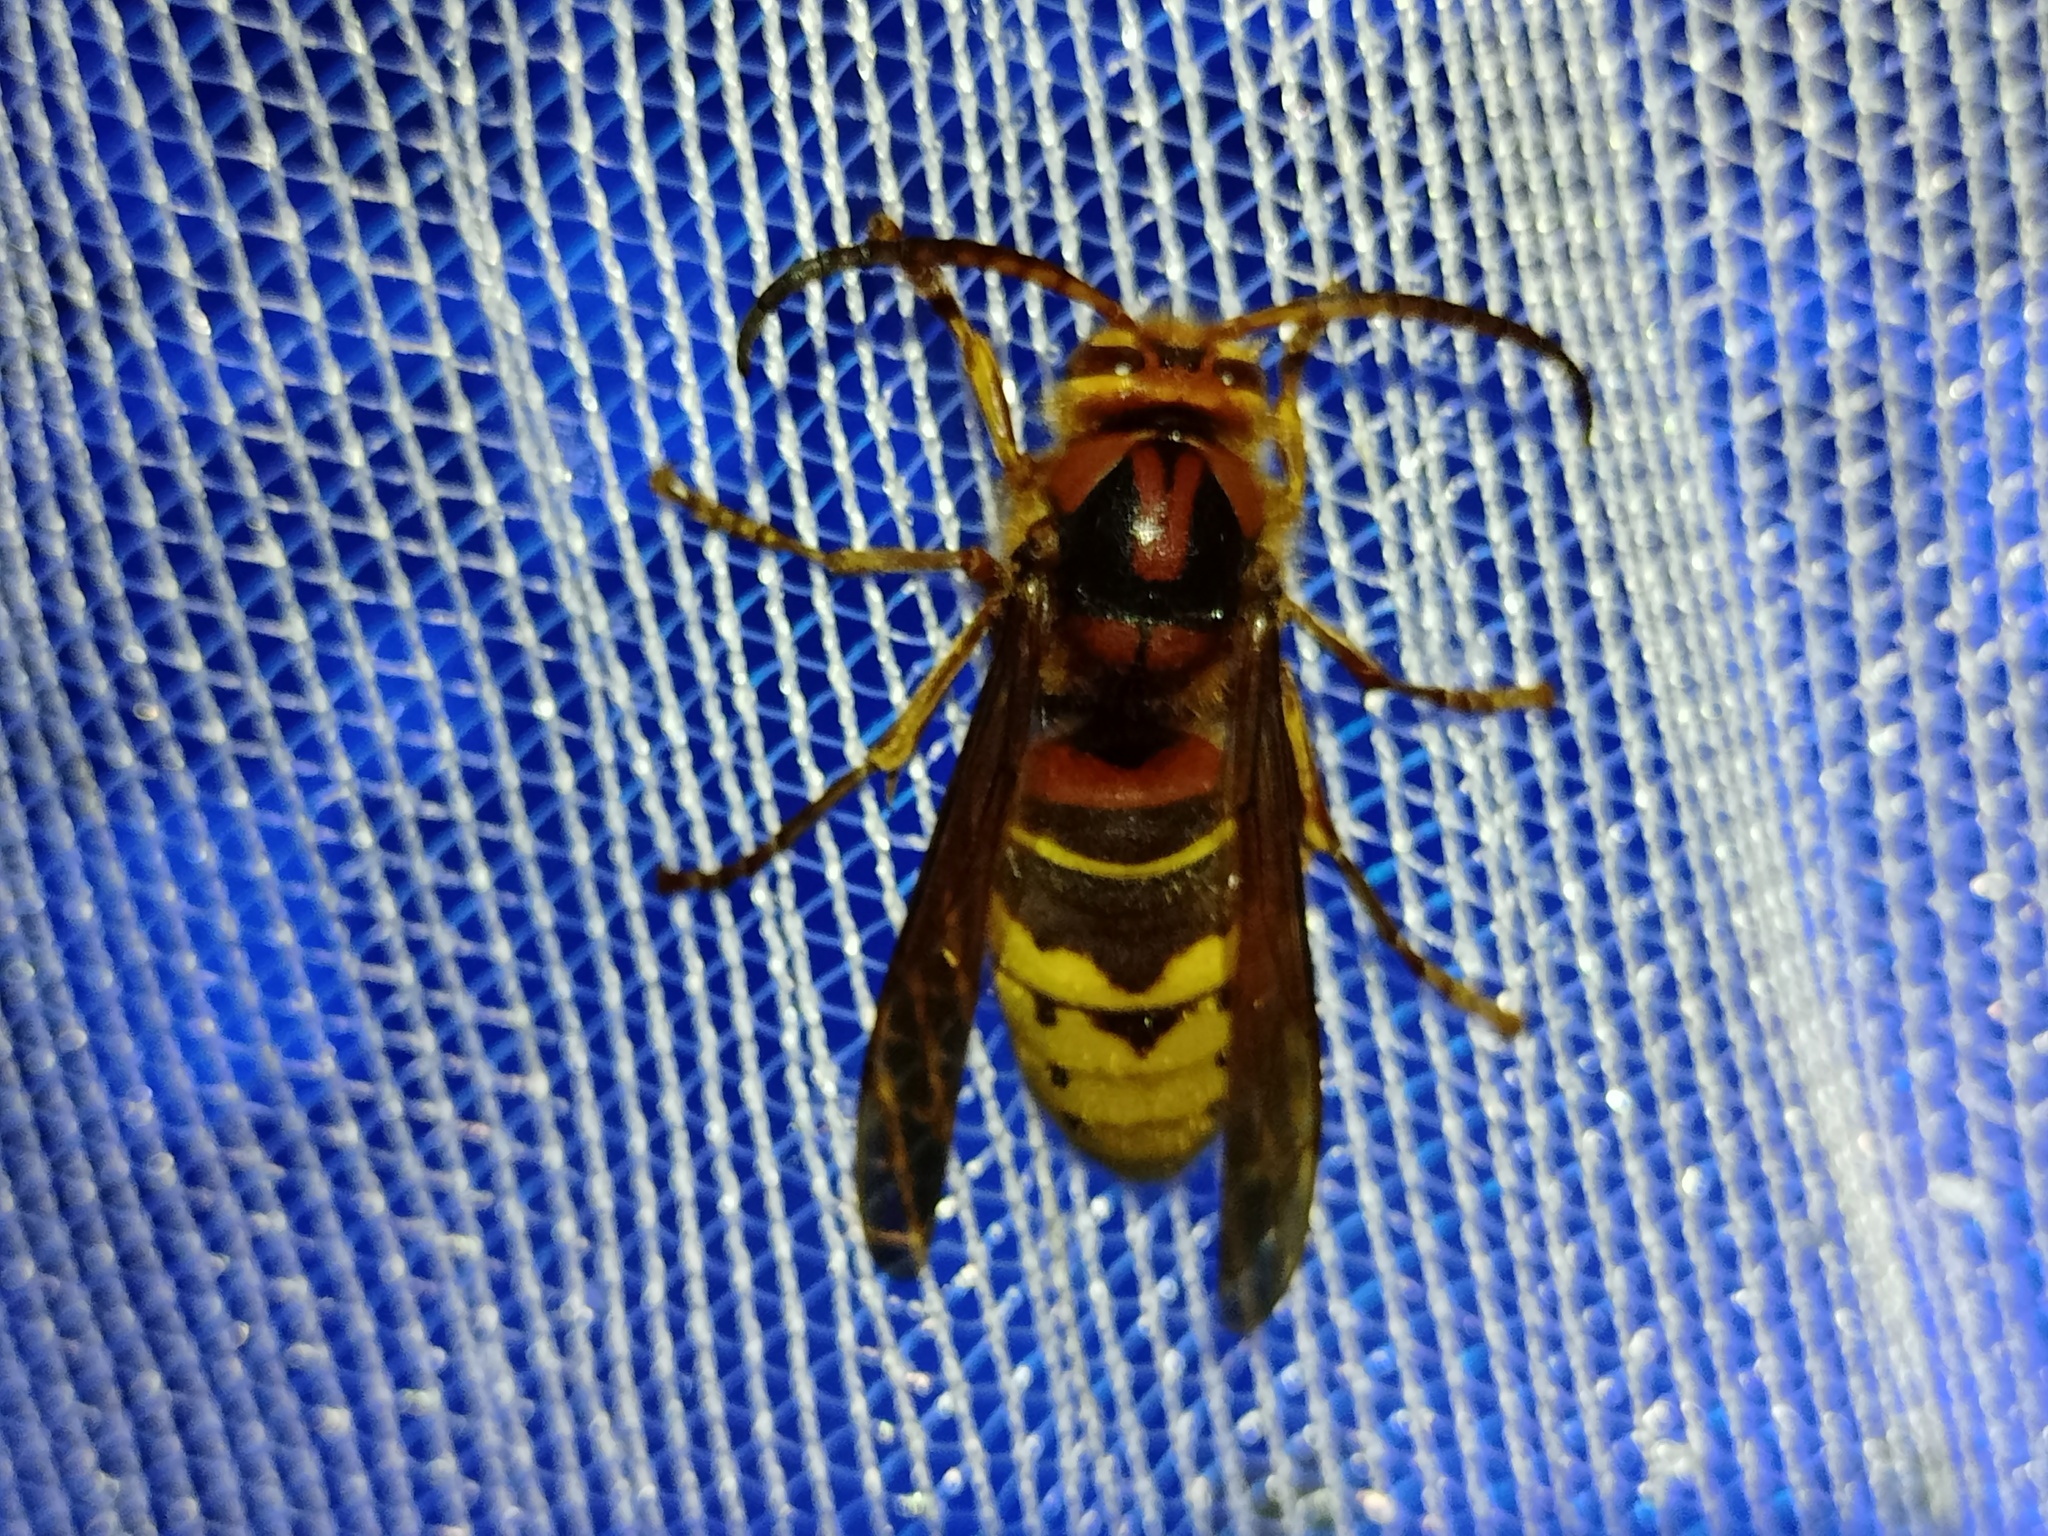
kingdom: Animalia
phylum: Arthropoda
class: Insecta
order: Hymenoptera
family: Vespidae
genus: Vespa
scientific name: Vespa crabro
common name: Hornet
